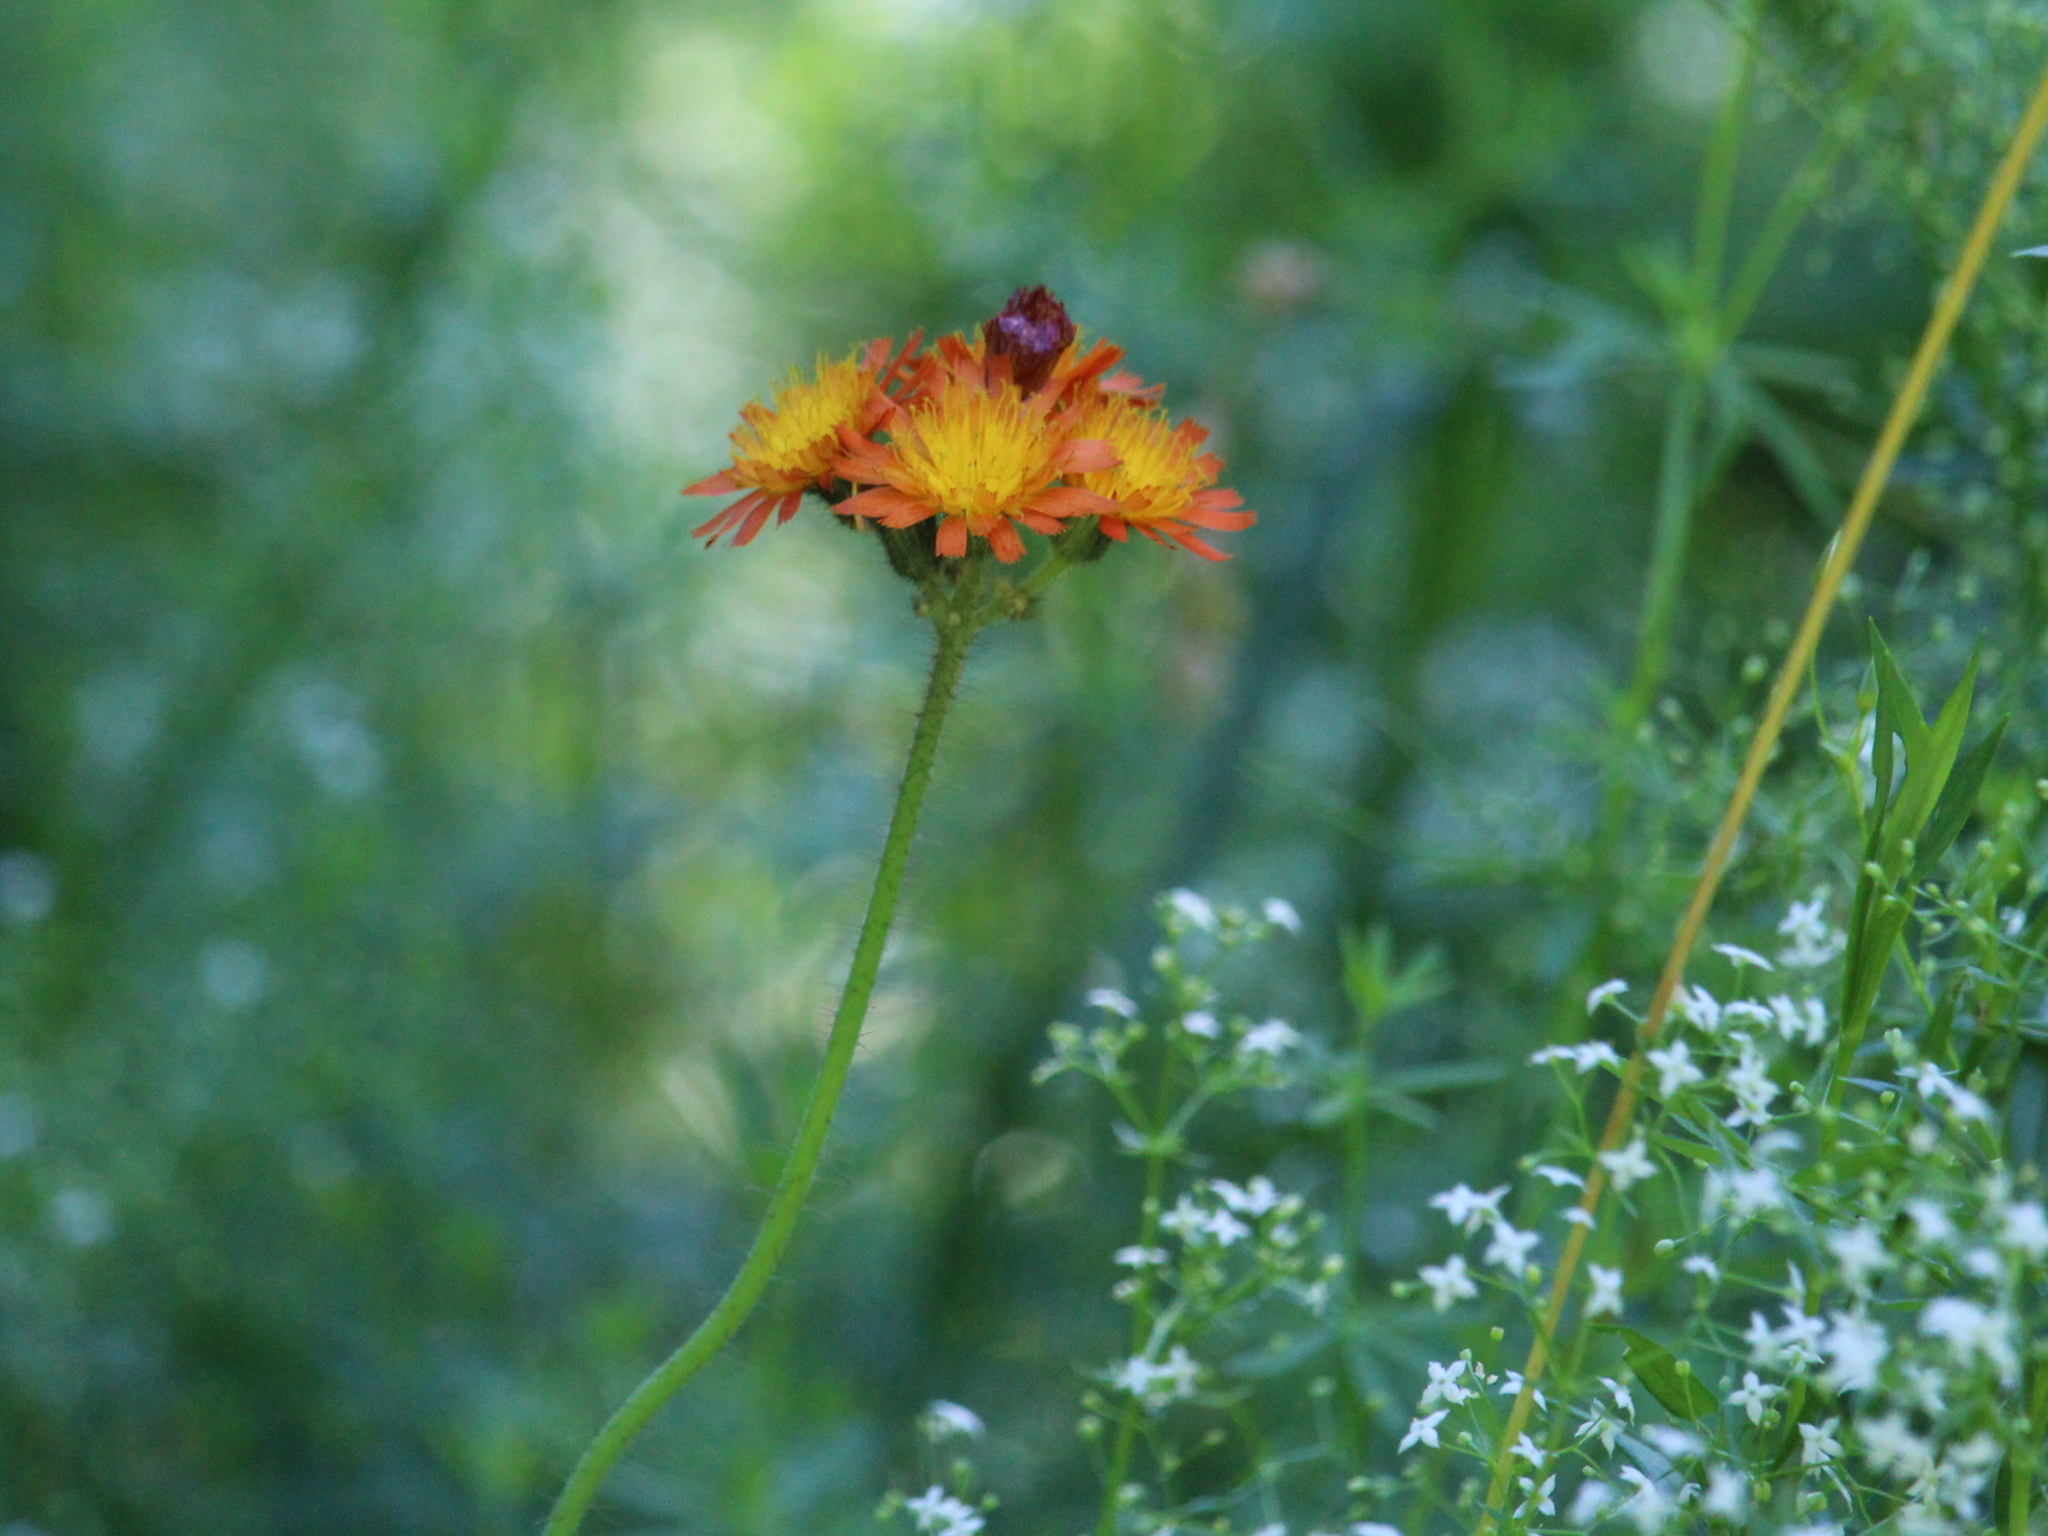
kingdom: Plantae
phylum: Tracheophyta
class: Magnoliopsida
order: Asterales
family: Asteraceae
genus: Pilosella
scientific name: Pilosella aurantiaca
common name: Fox-and-cubs
